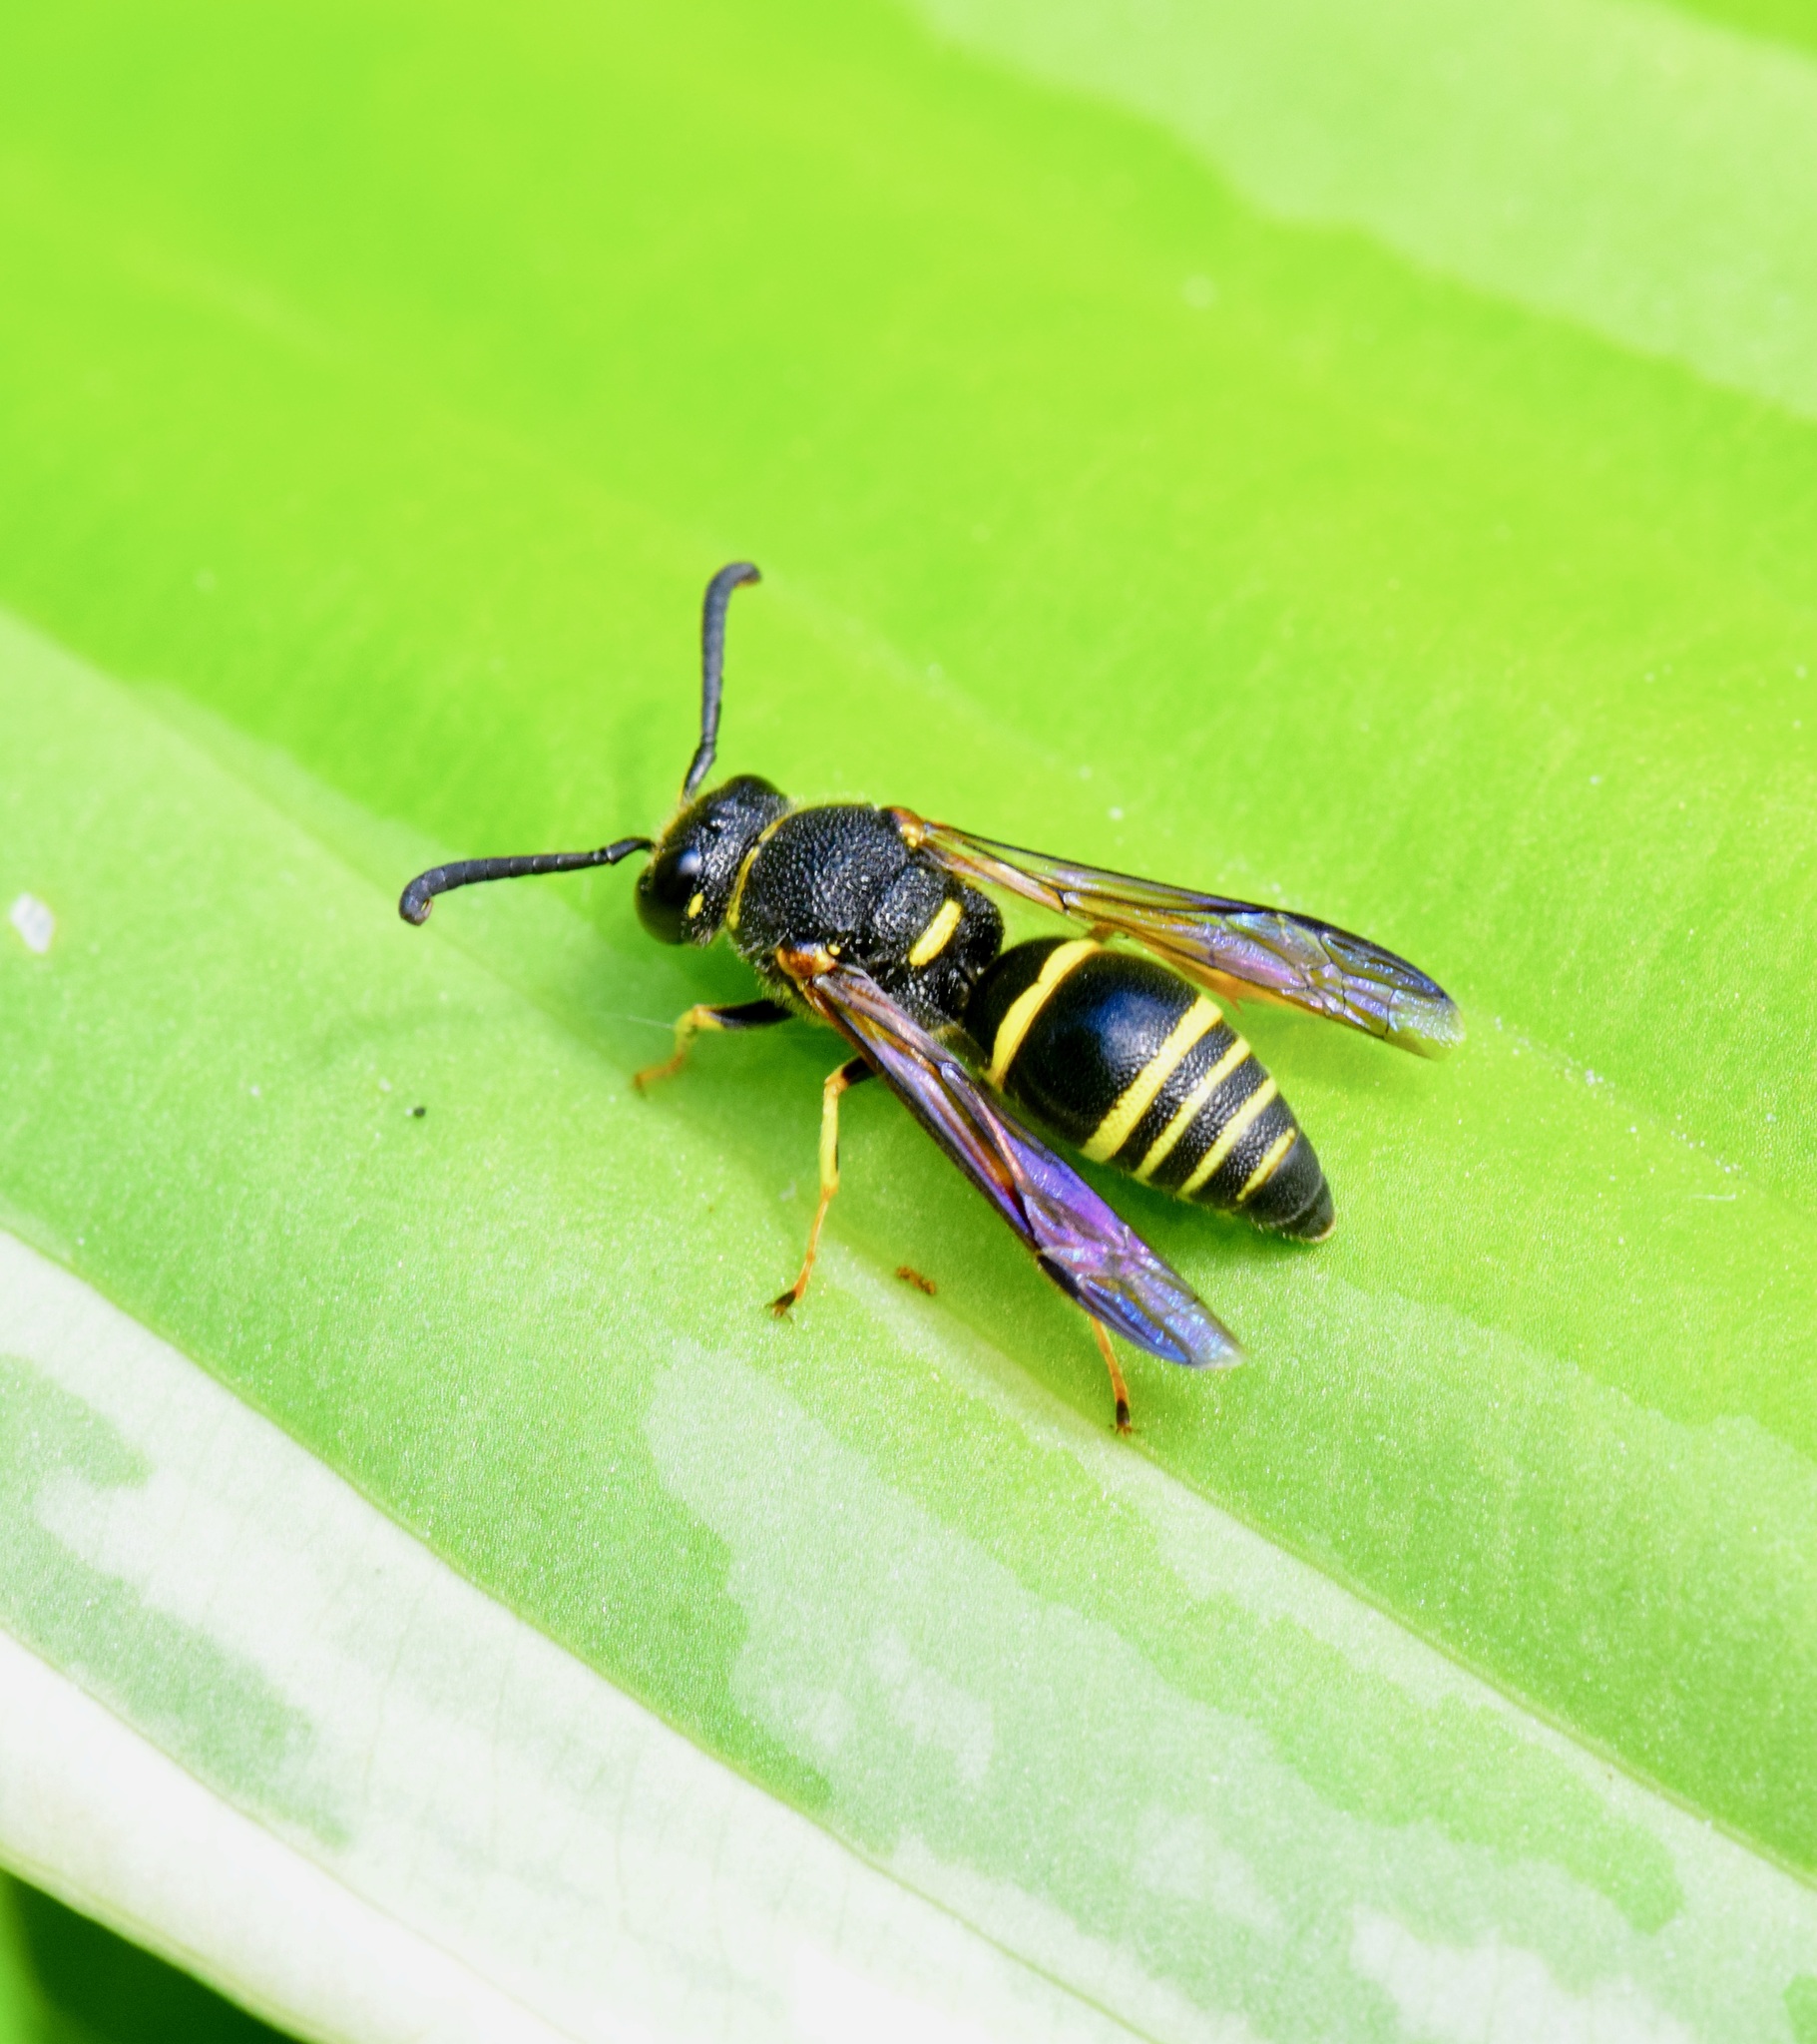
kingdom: Animalia
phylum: Arthropoda
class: Insecta
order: Hymenoptera
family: Eumenidae
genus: Euodynerus
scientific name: Euodynerus foraminatus
